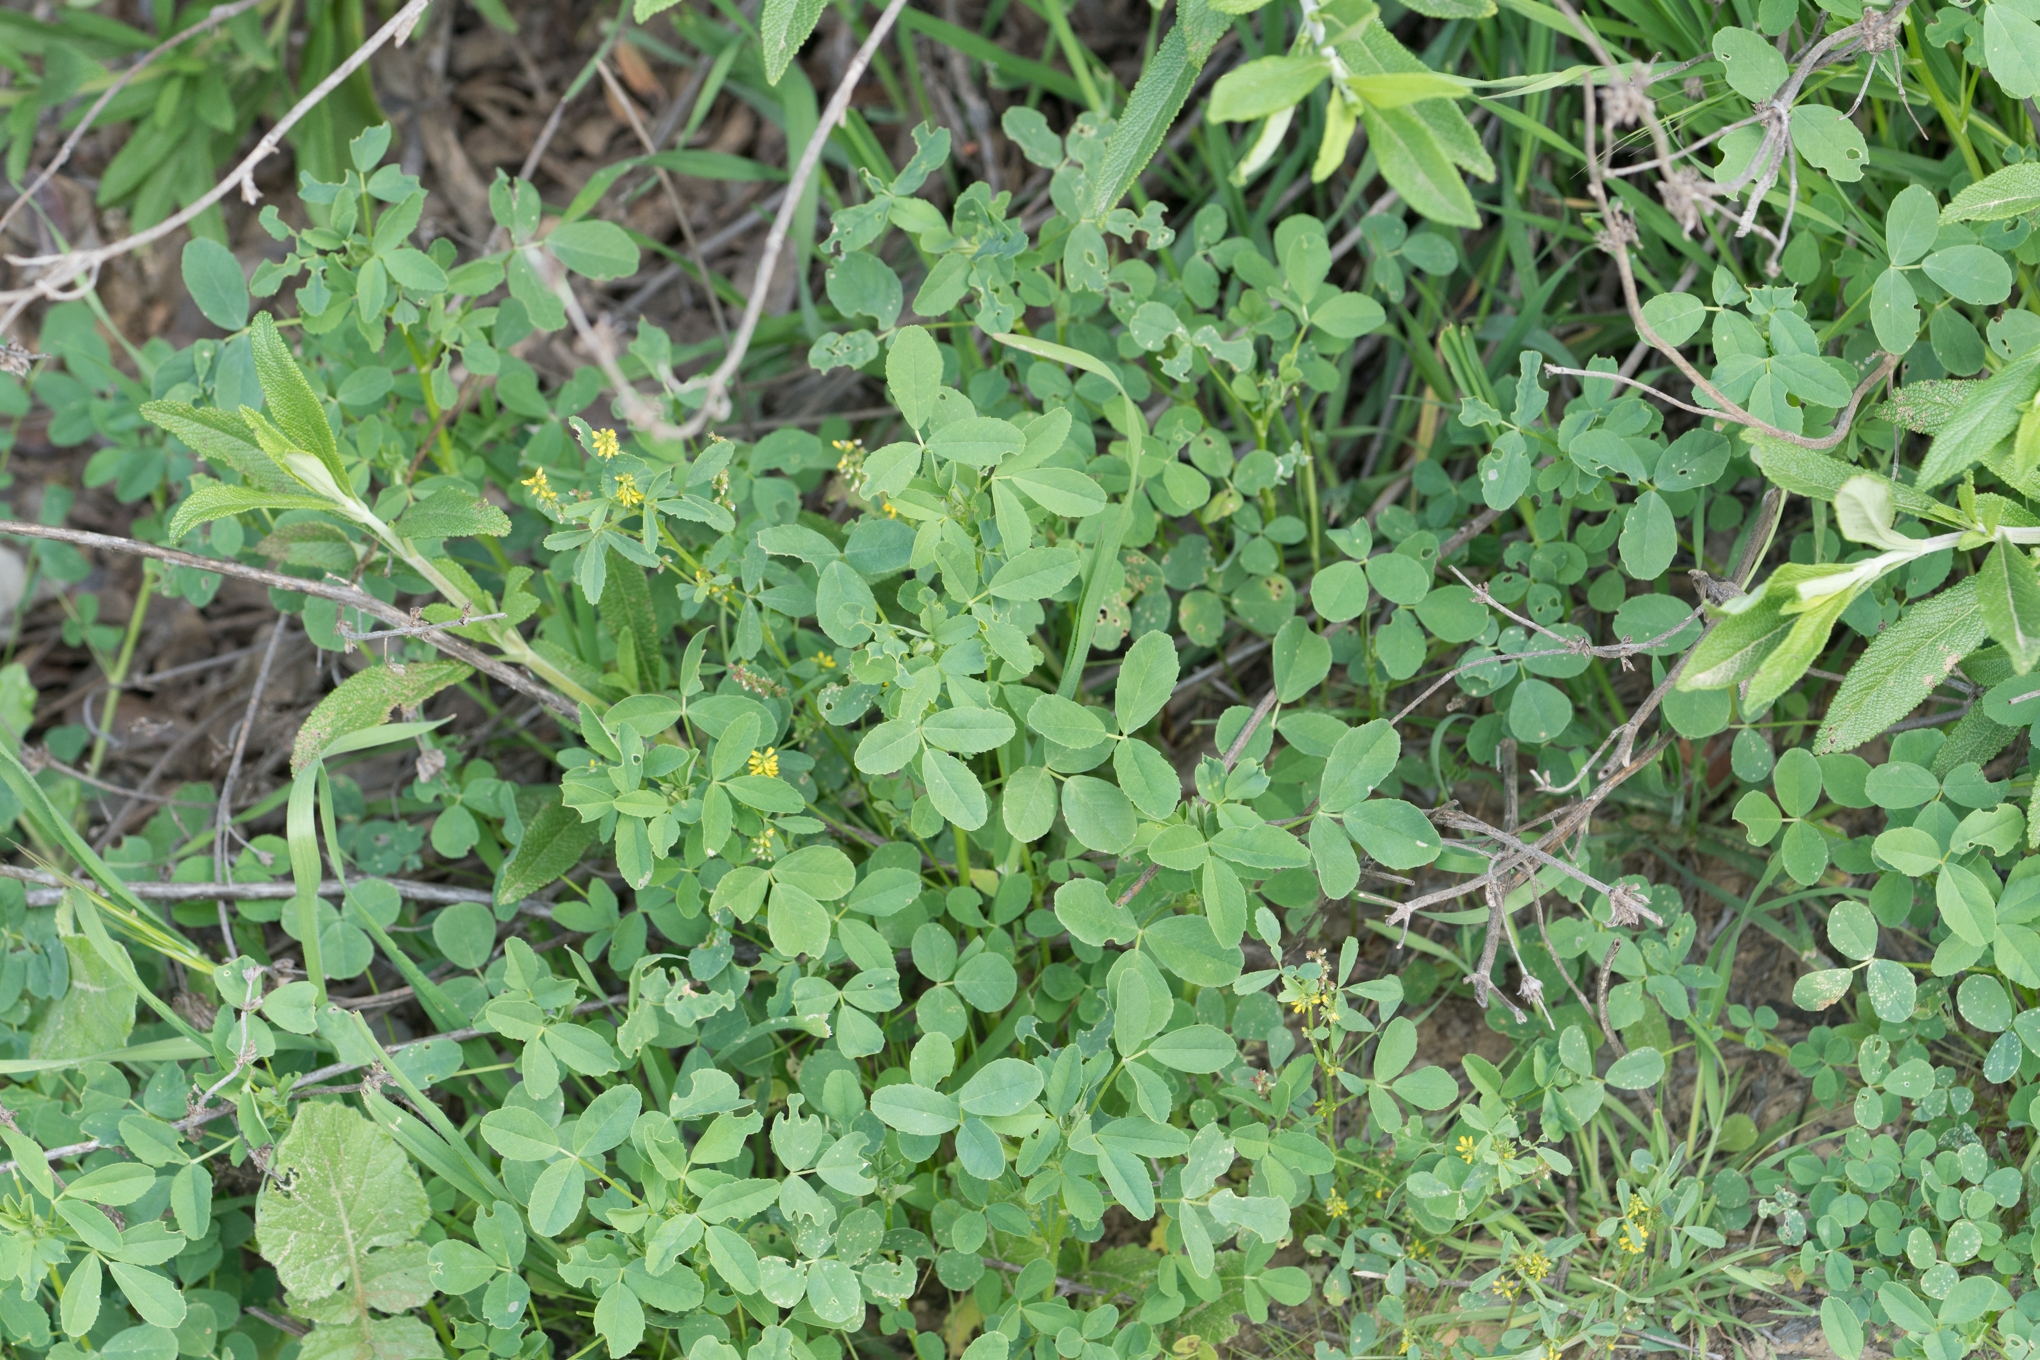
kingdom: Plantae
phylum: Tracheophyta
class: Magnoliopsida
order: Fabales
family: Fabaceae
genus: Melilotus
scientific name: Melilotus indicus
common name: Small melilot
